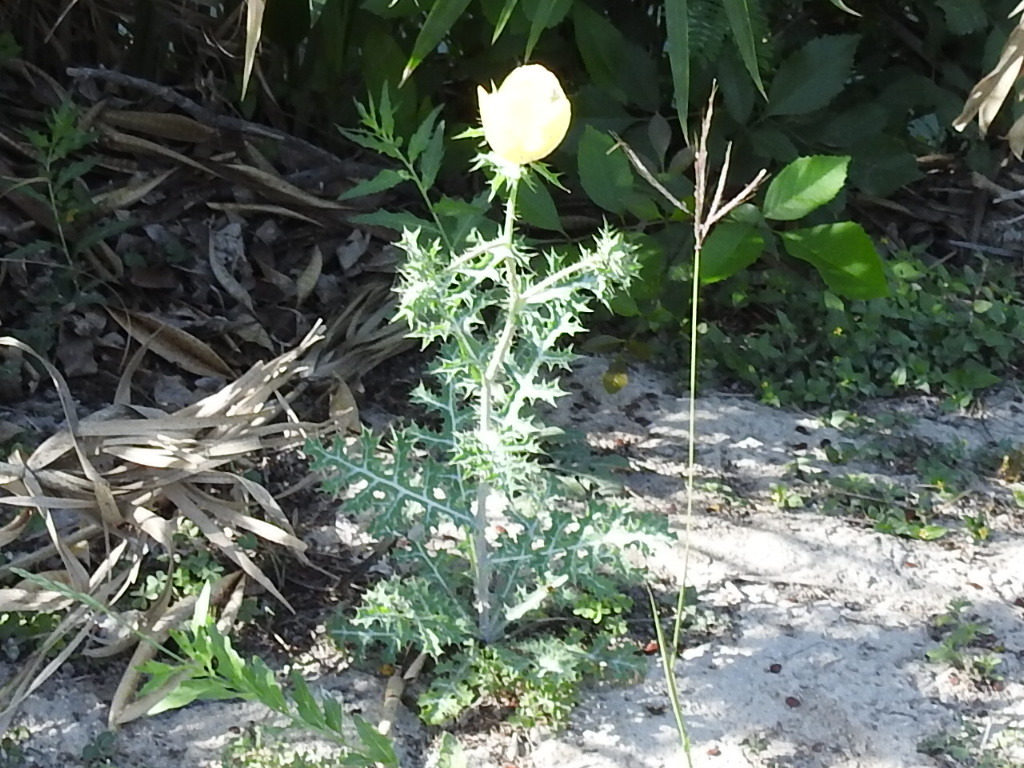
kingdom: Plantae
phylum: Tracheophyta
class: Magnoliopsida
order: Ranunculales
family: Papaveraceae
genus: Argemone
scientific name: Argemone mexicana
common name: Mexican poppy
